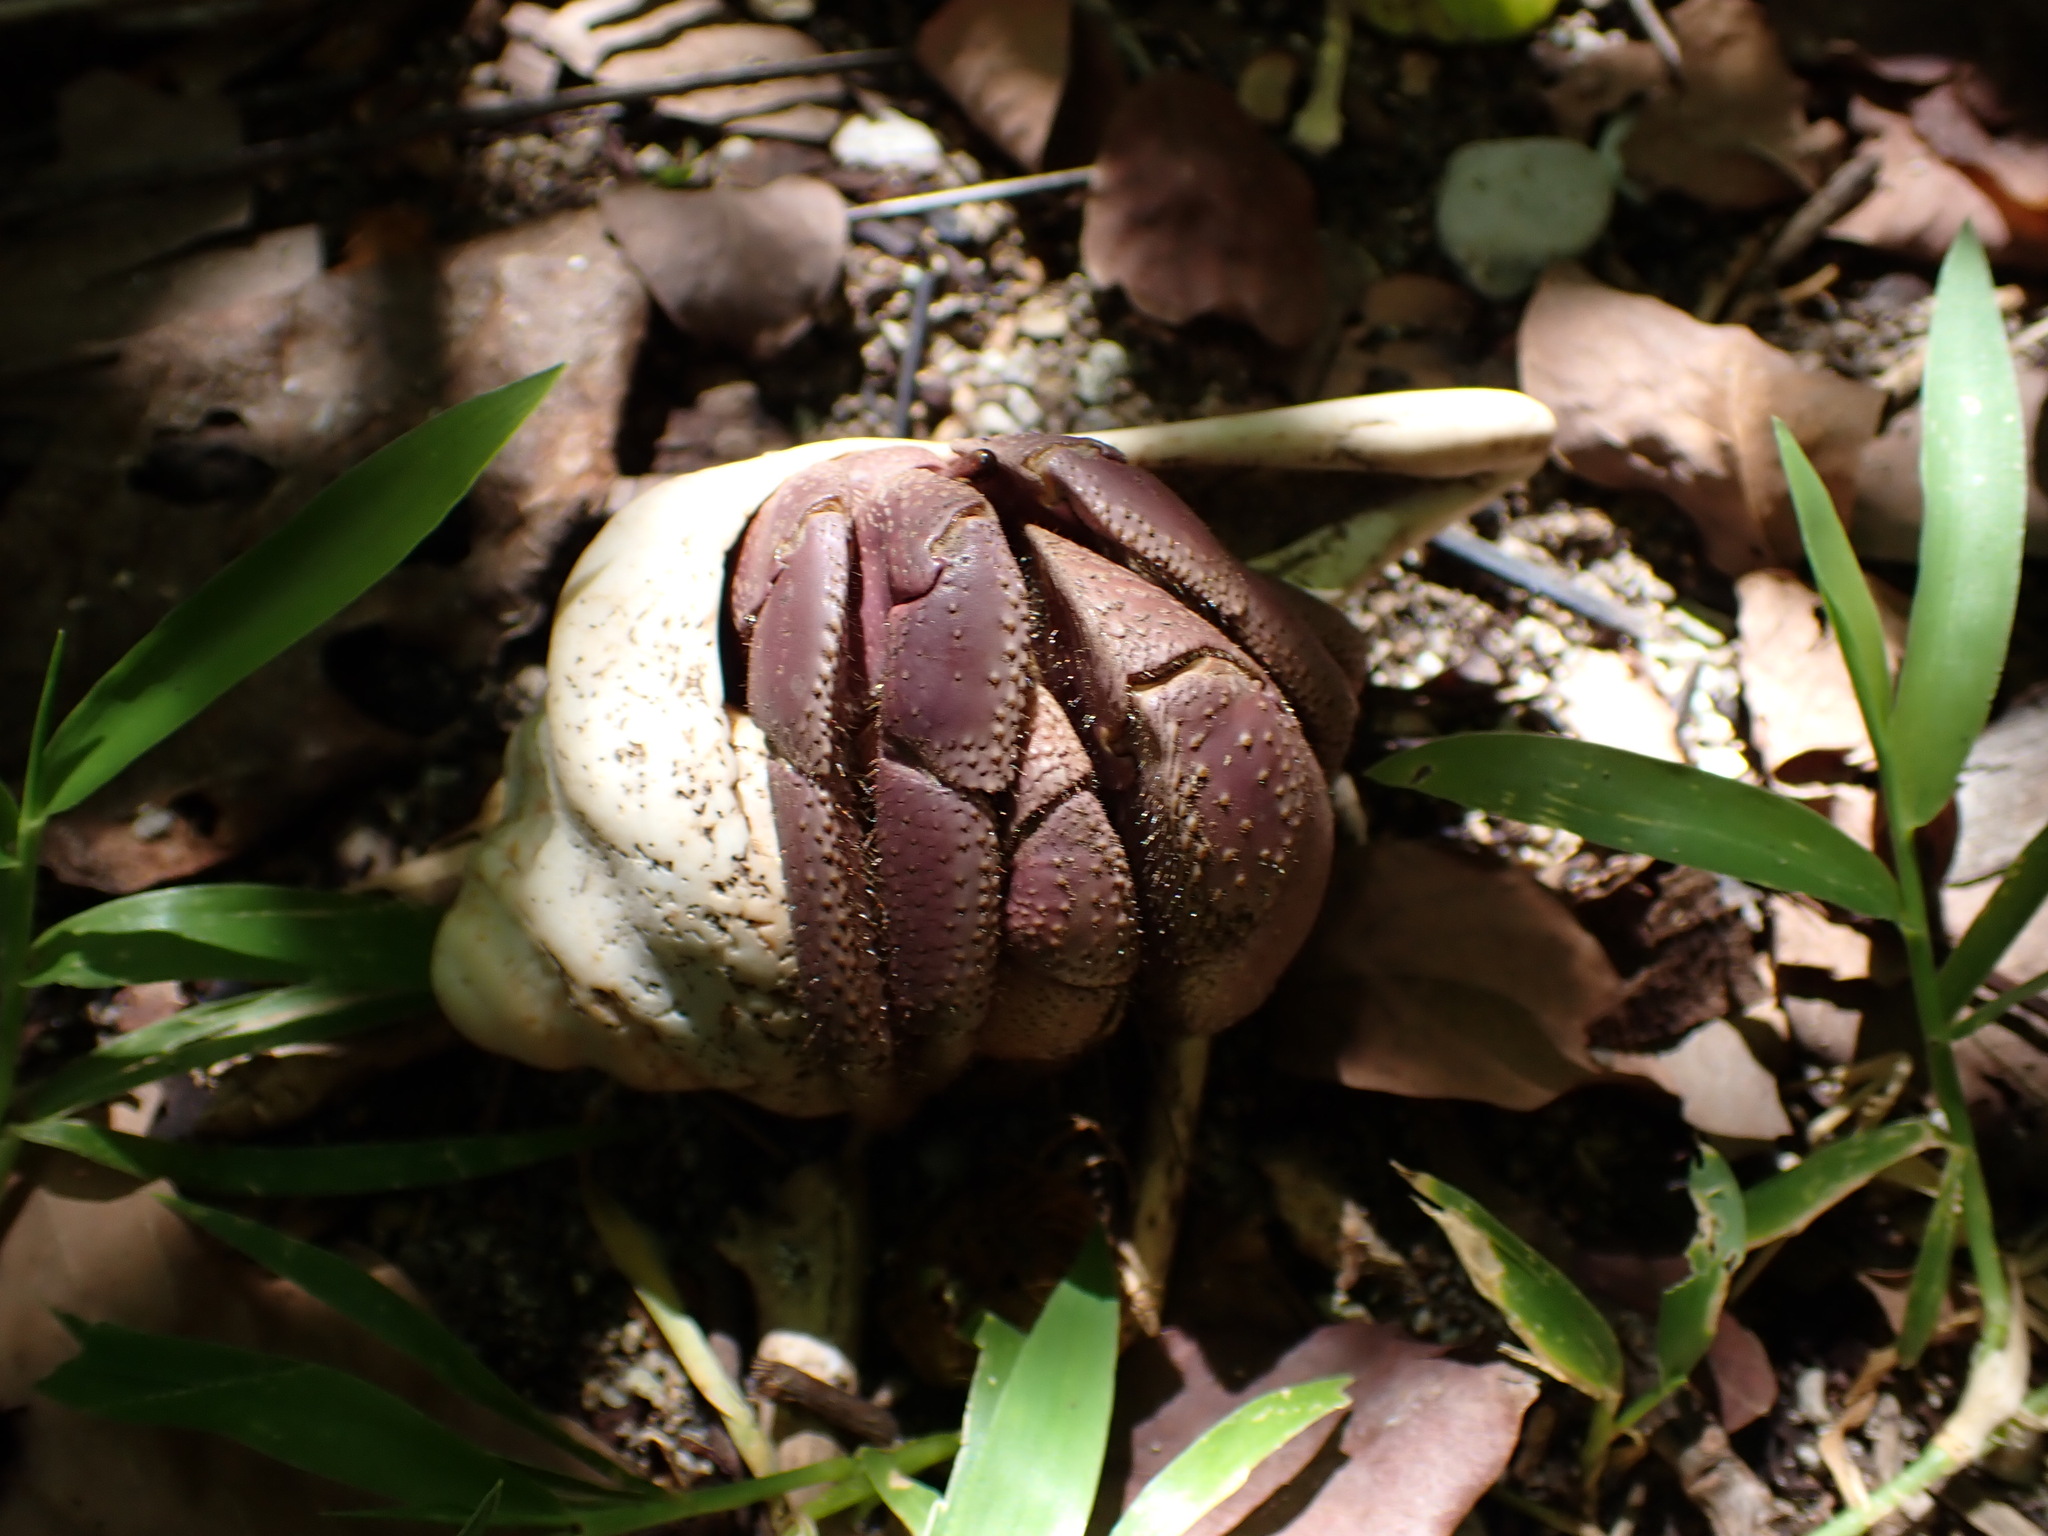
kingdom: Animalia
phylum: Arthropoda
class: Malacostraca
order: Decapoda
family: Coenobitidae
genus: Coenobita
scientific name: Coenobita brevimanus
